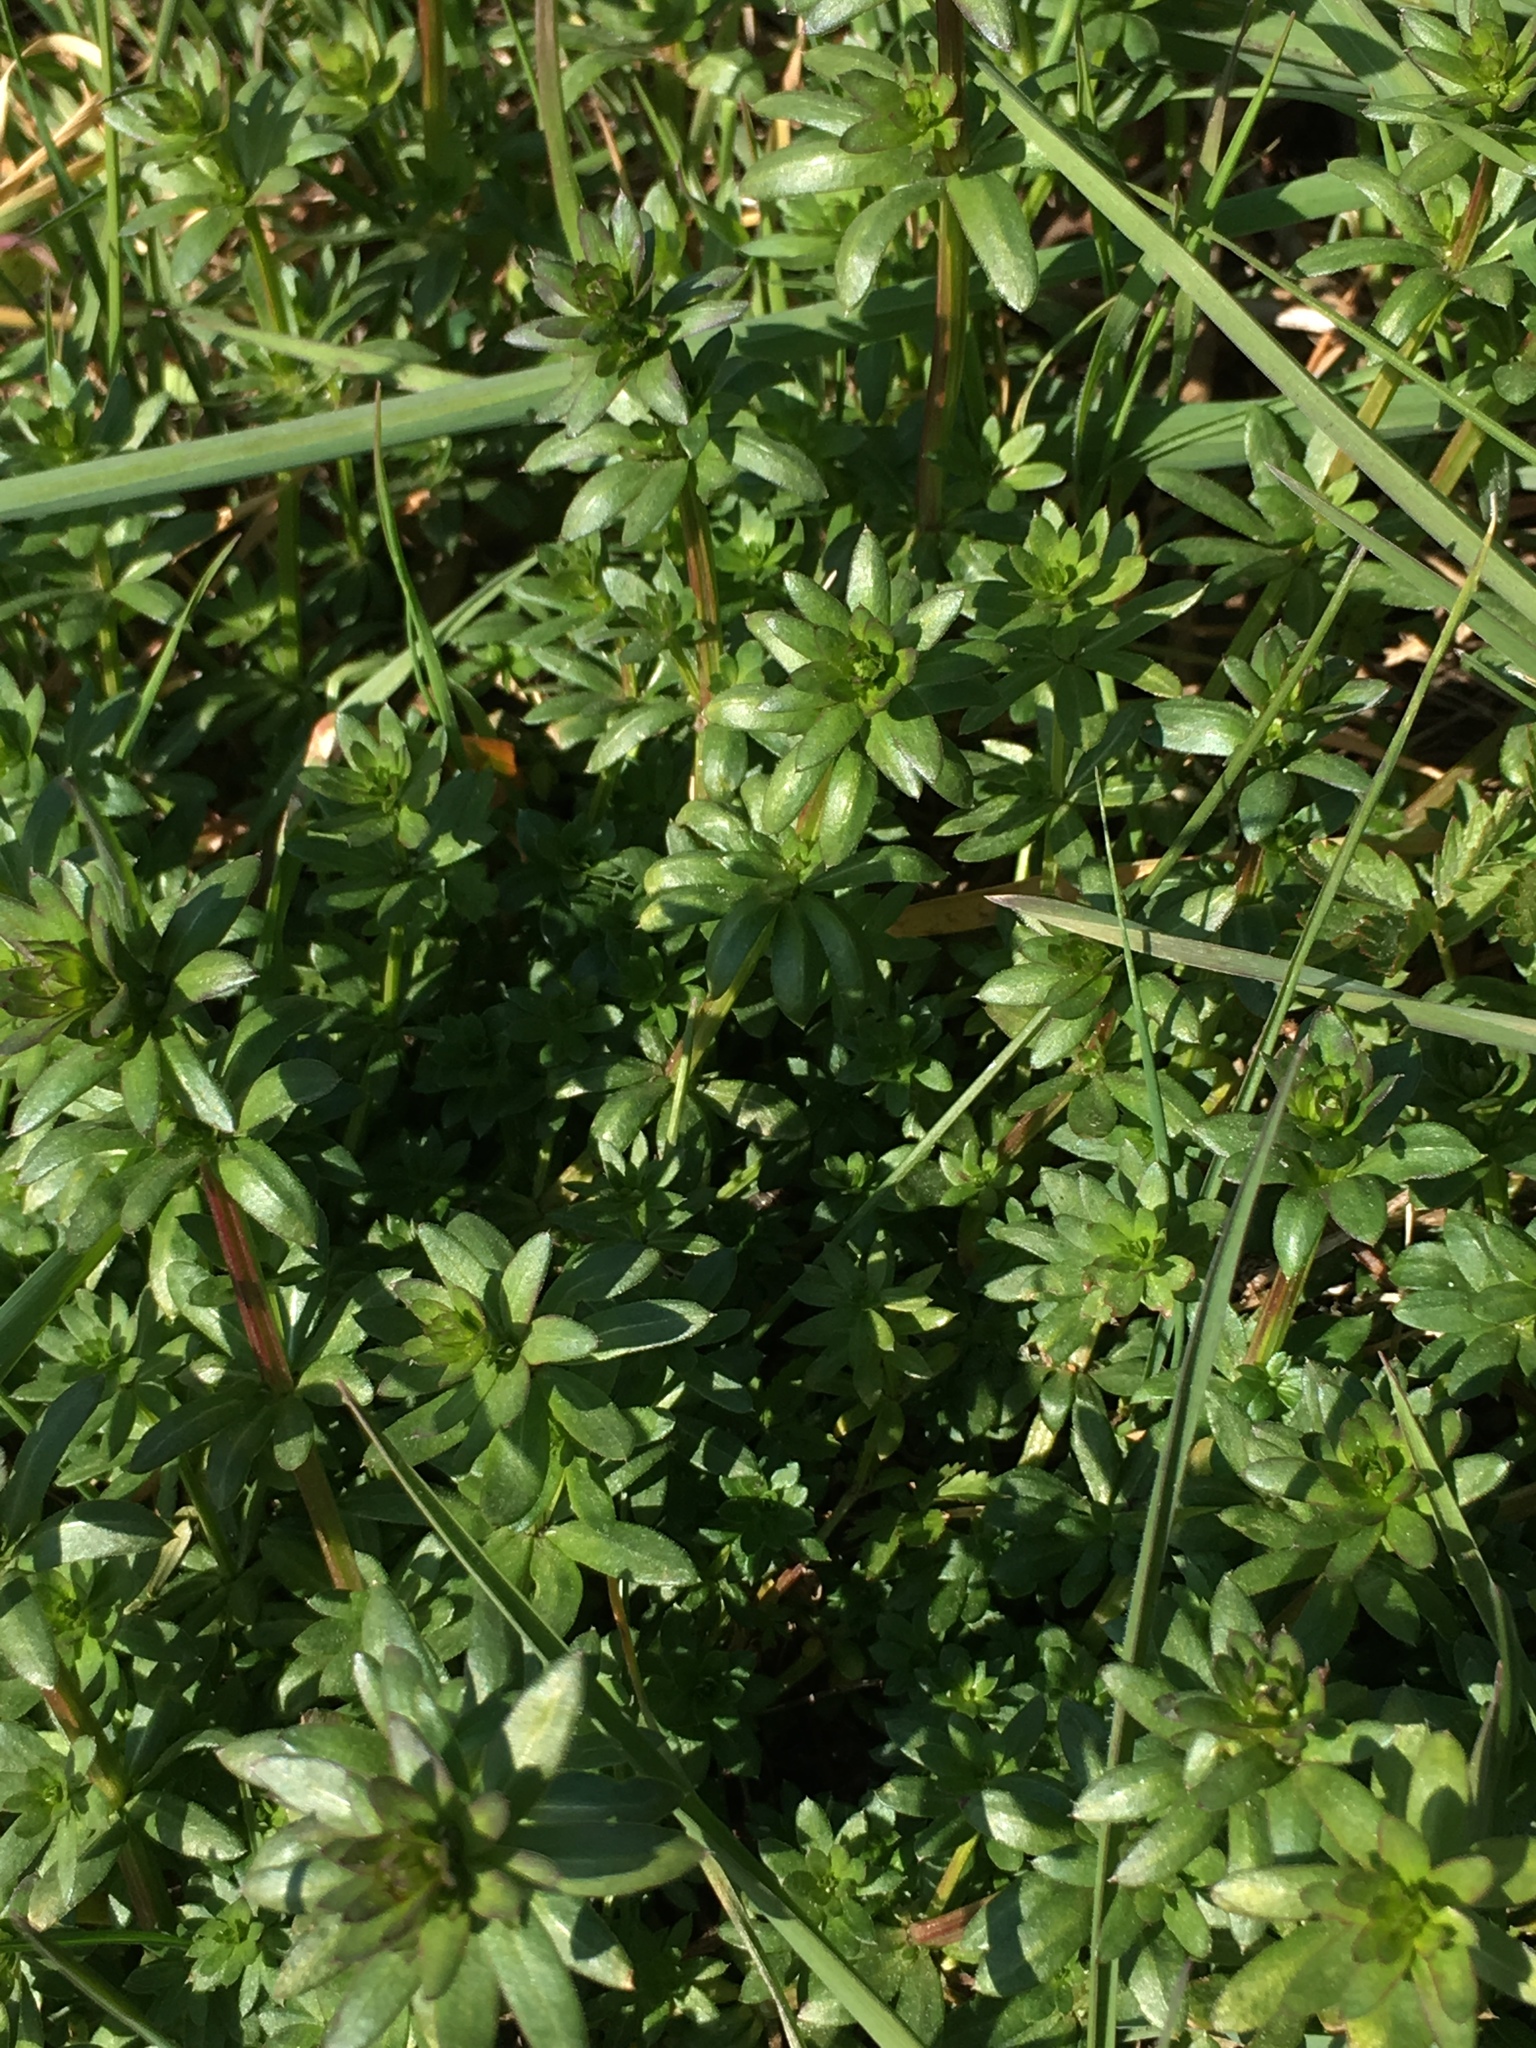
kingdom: Plantae
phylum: Tracheophyta
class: Magnoliopsida
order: Gentianales
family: Rubiaceae
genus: Galium
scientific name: Galium album
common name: White bedstraw
